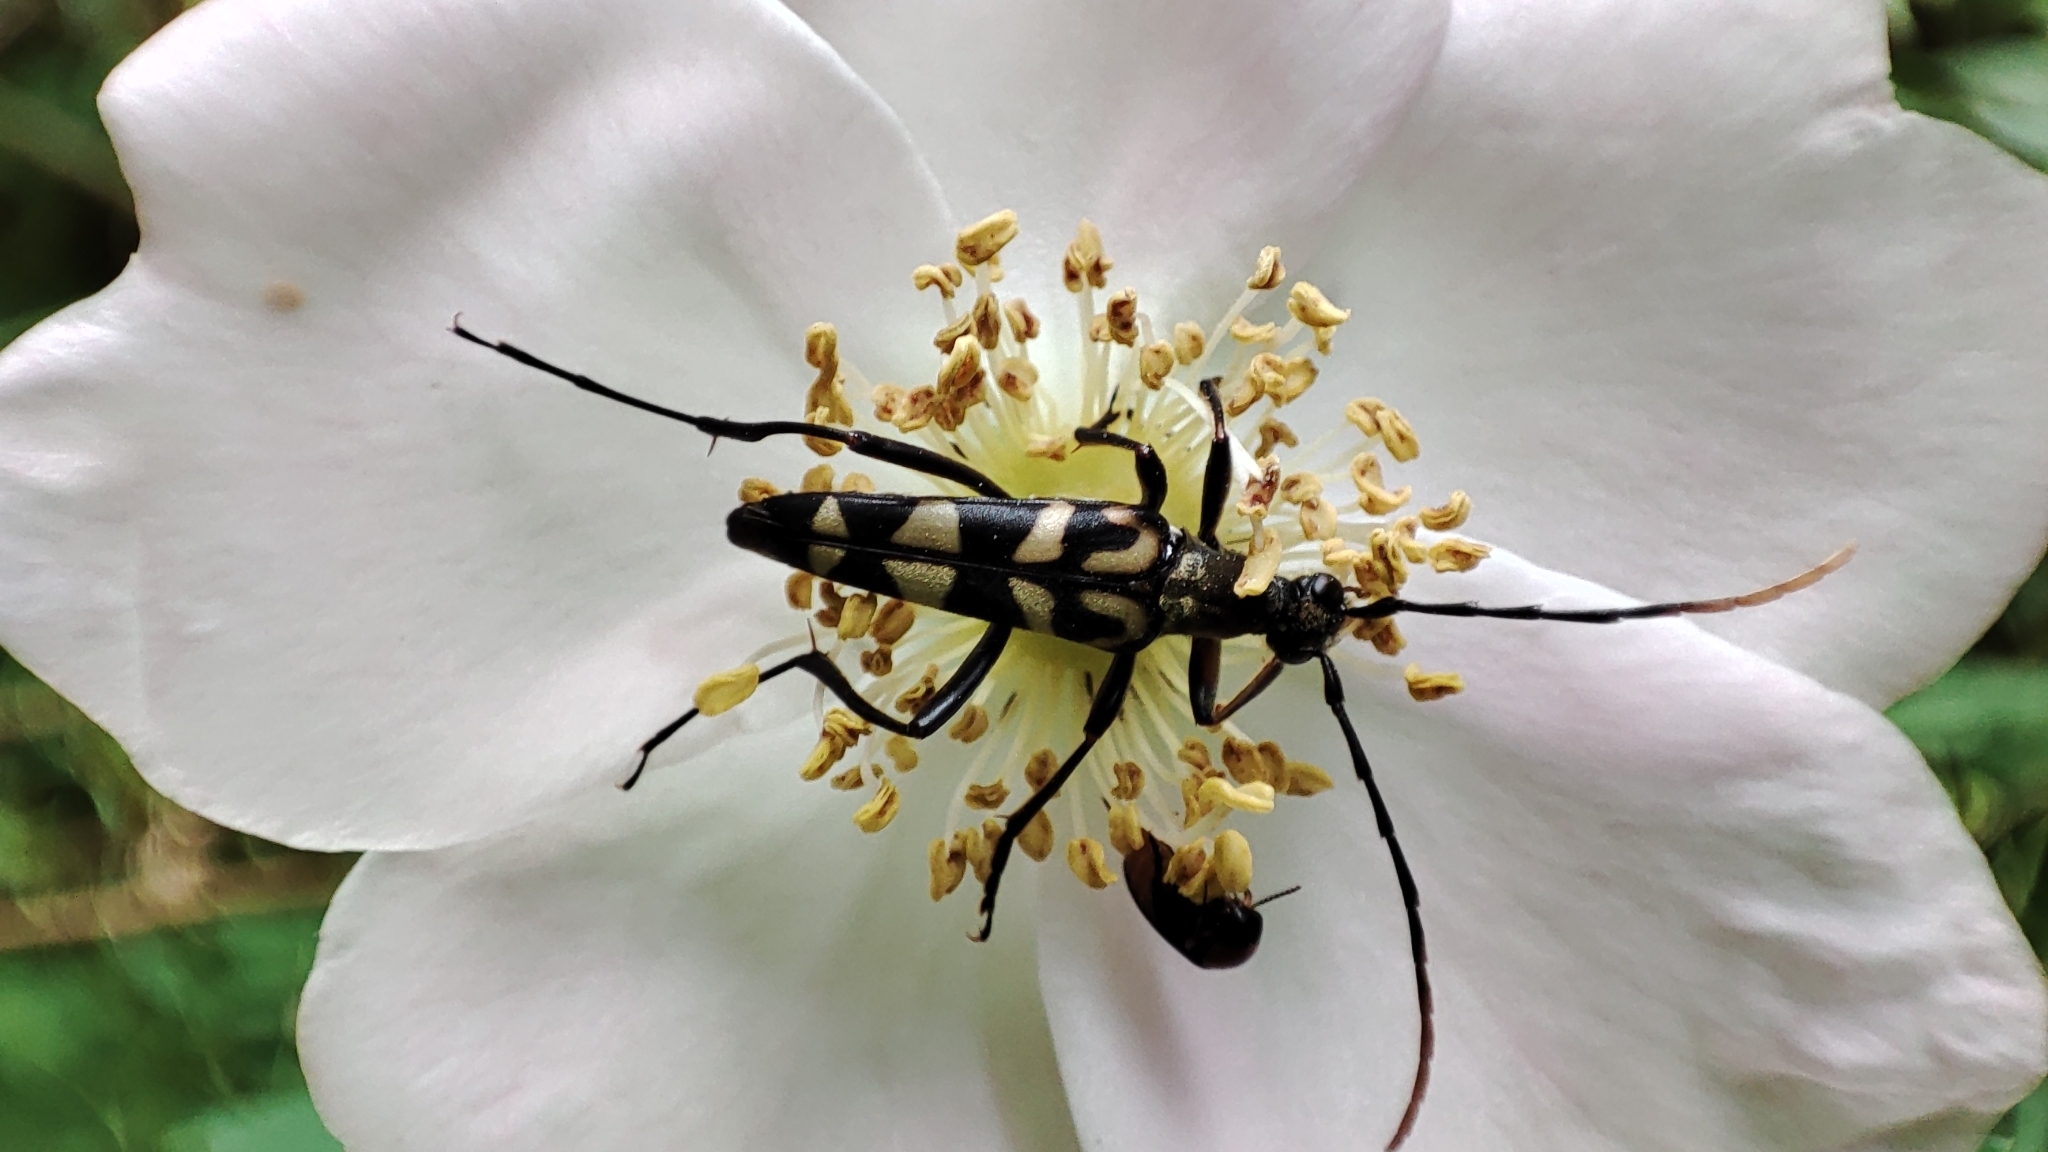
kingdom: Animalia
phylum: Arthropoda
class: Insecta
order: Coleoptera
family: Cerambycidae
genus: Leptura
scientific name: Leptura annularis
